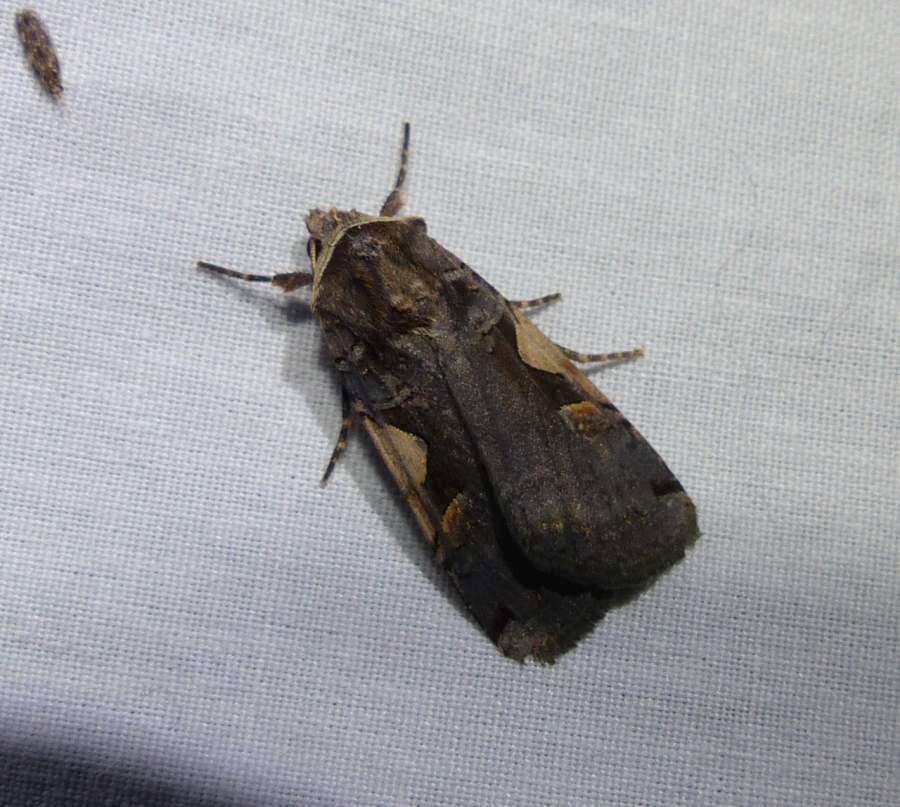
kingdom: Animalia
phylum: Arthropoda
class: Insecta
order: Lepidoptera
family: Noctuidae
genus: Xestia
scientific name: Xestia c-nigrum
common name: Setaceous hebrew character
